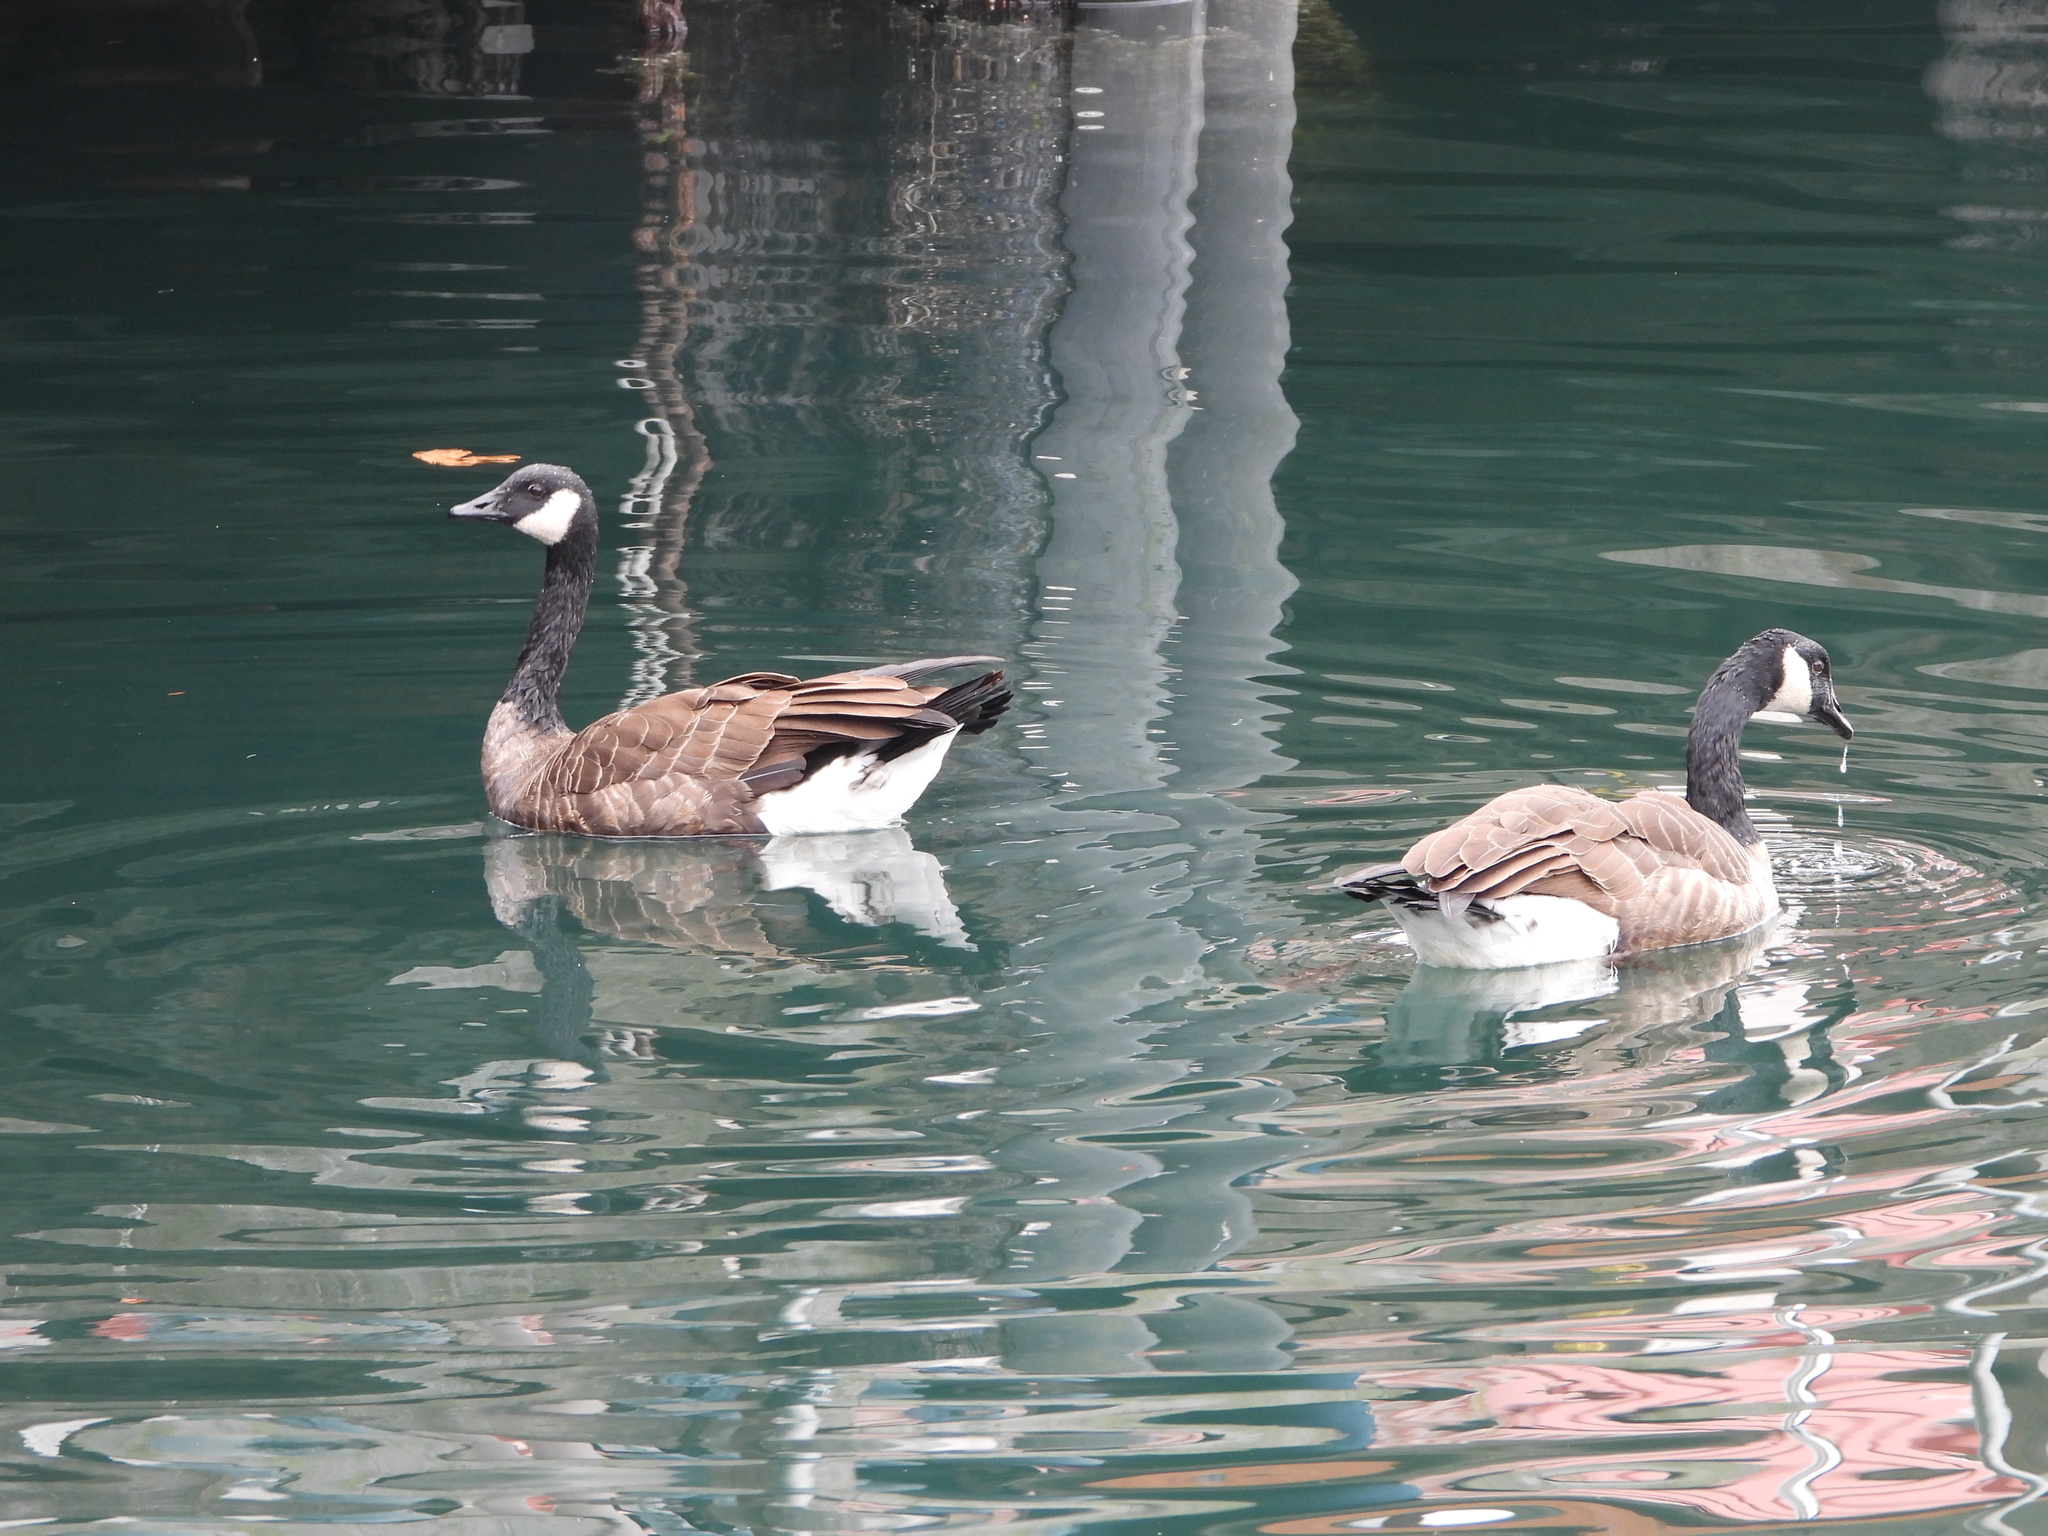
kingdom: Animalia
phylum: Chordata
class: Aves
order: Anseriformes
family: Anatidae
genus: Branta
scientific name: Branta canadensis
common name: Canada goose
